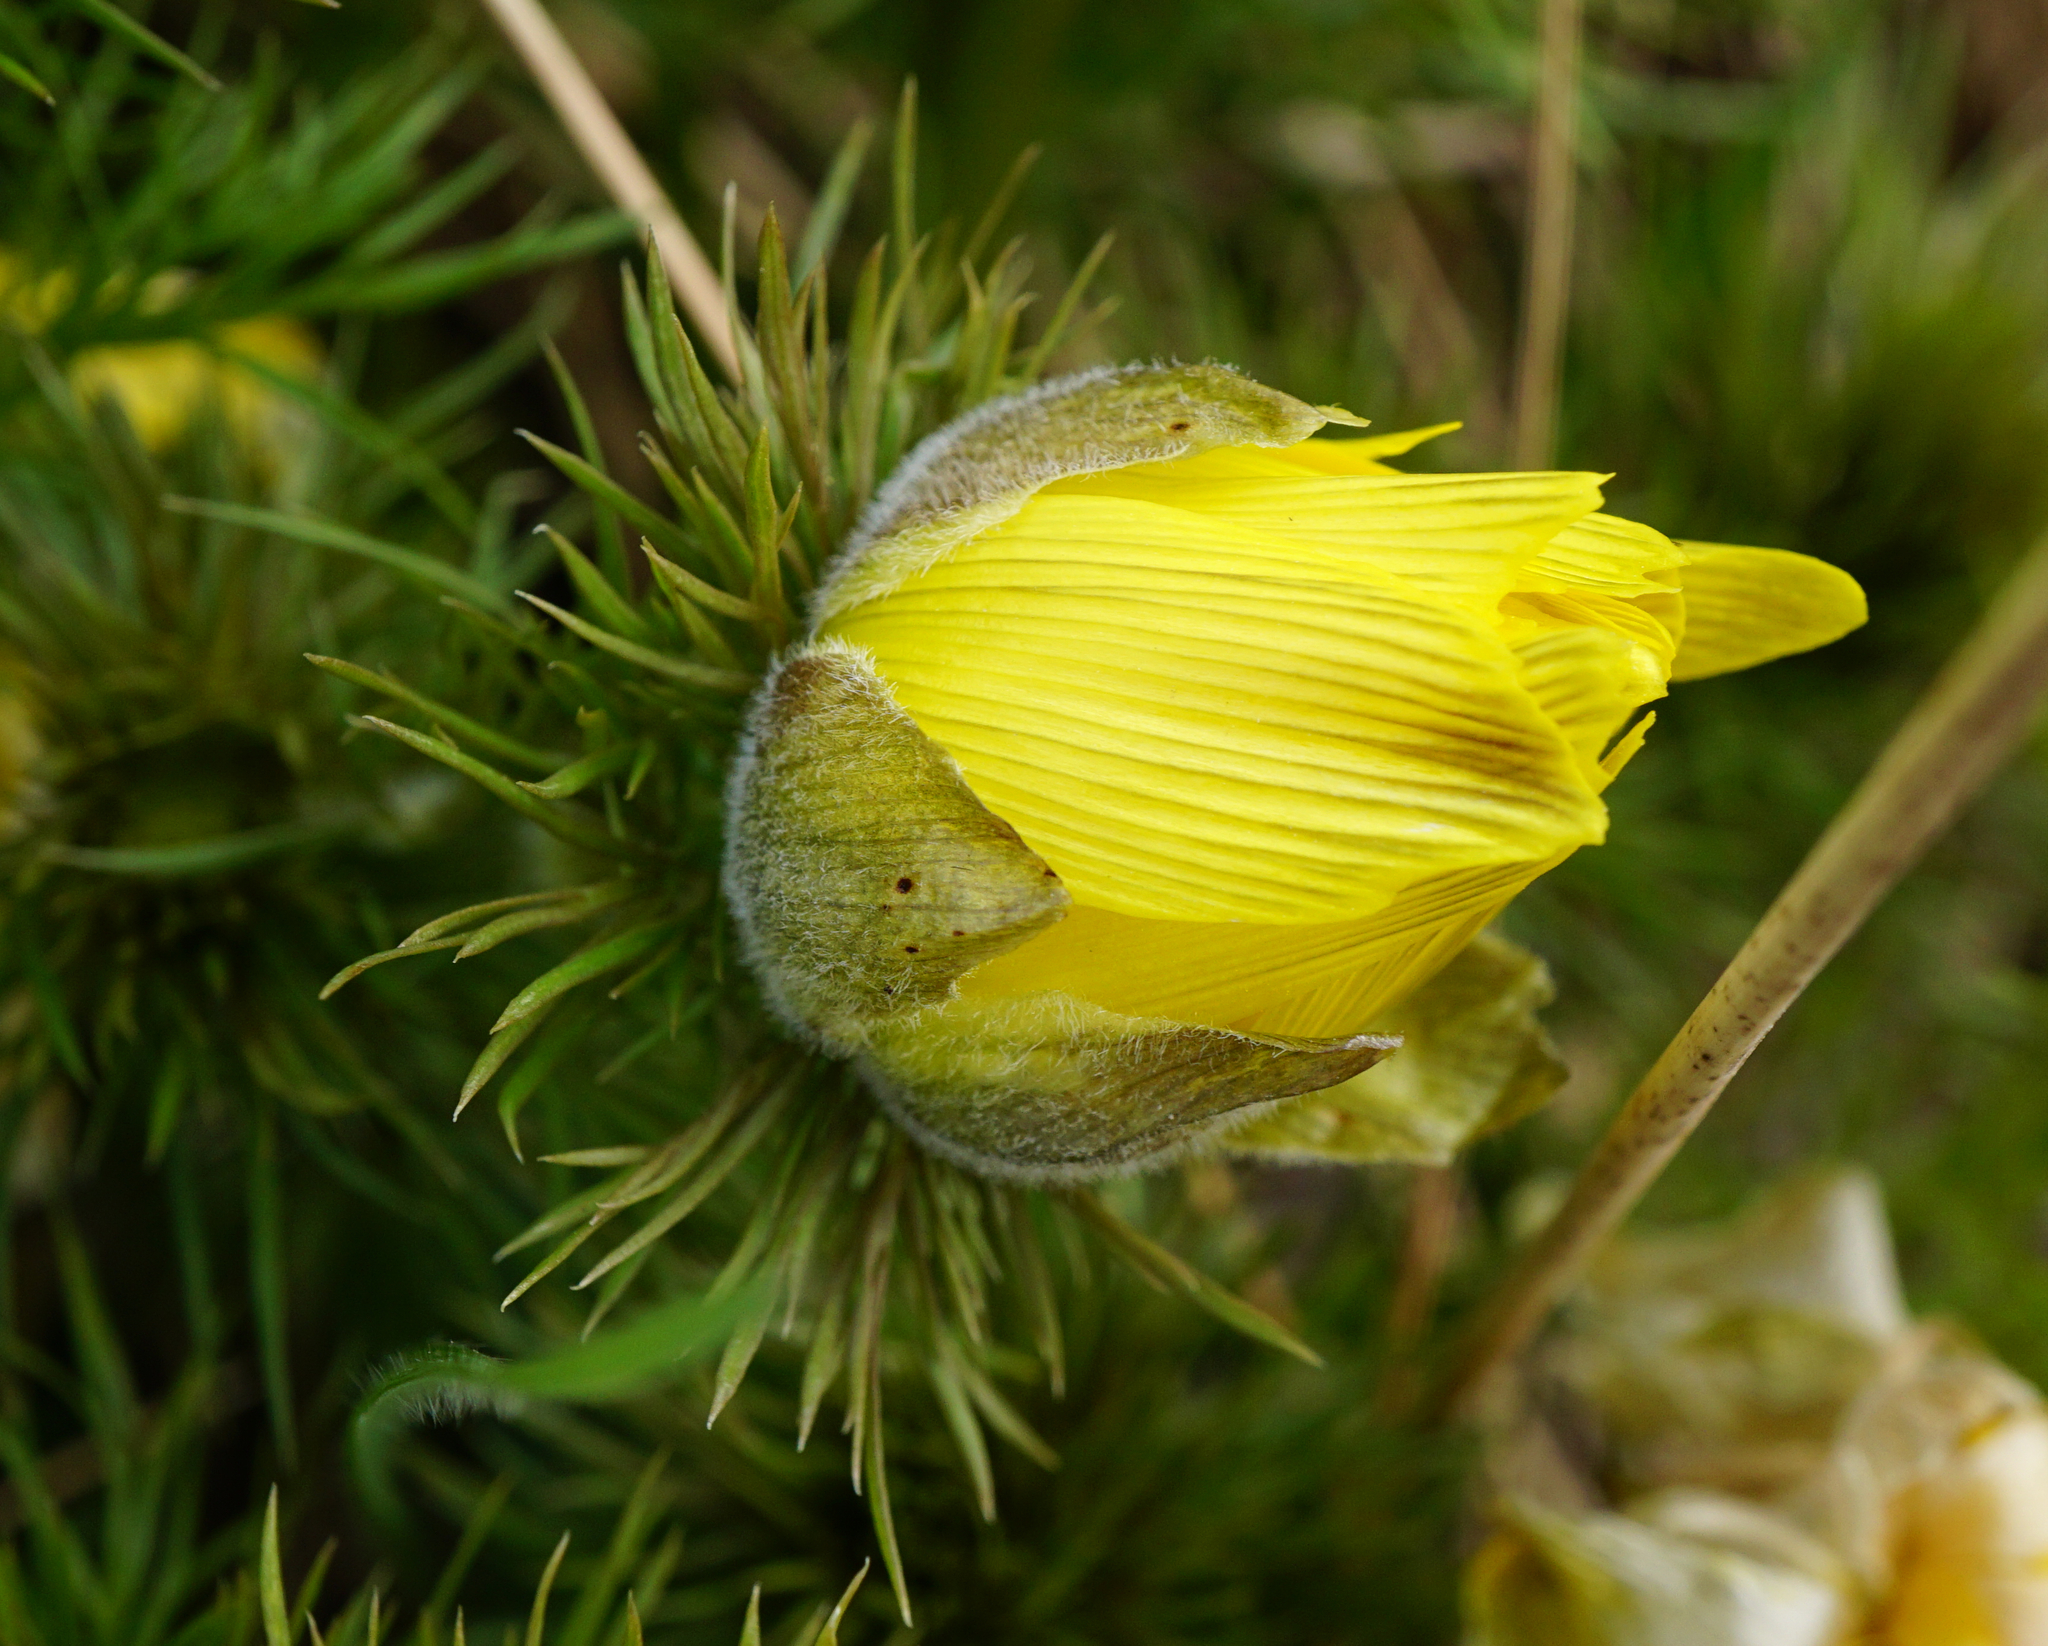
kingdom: Plantae
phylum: Tracheophyta
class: Magnoliopsida
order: Ranunculales
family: Ranunculaceae
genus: Adonis
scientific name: Adonis vernalis
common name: Yellow pheasants-eye
